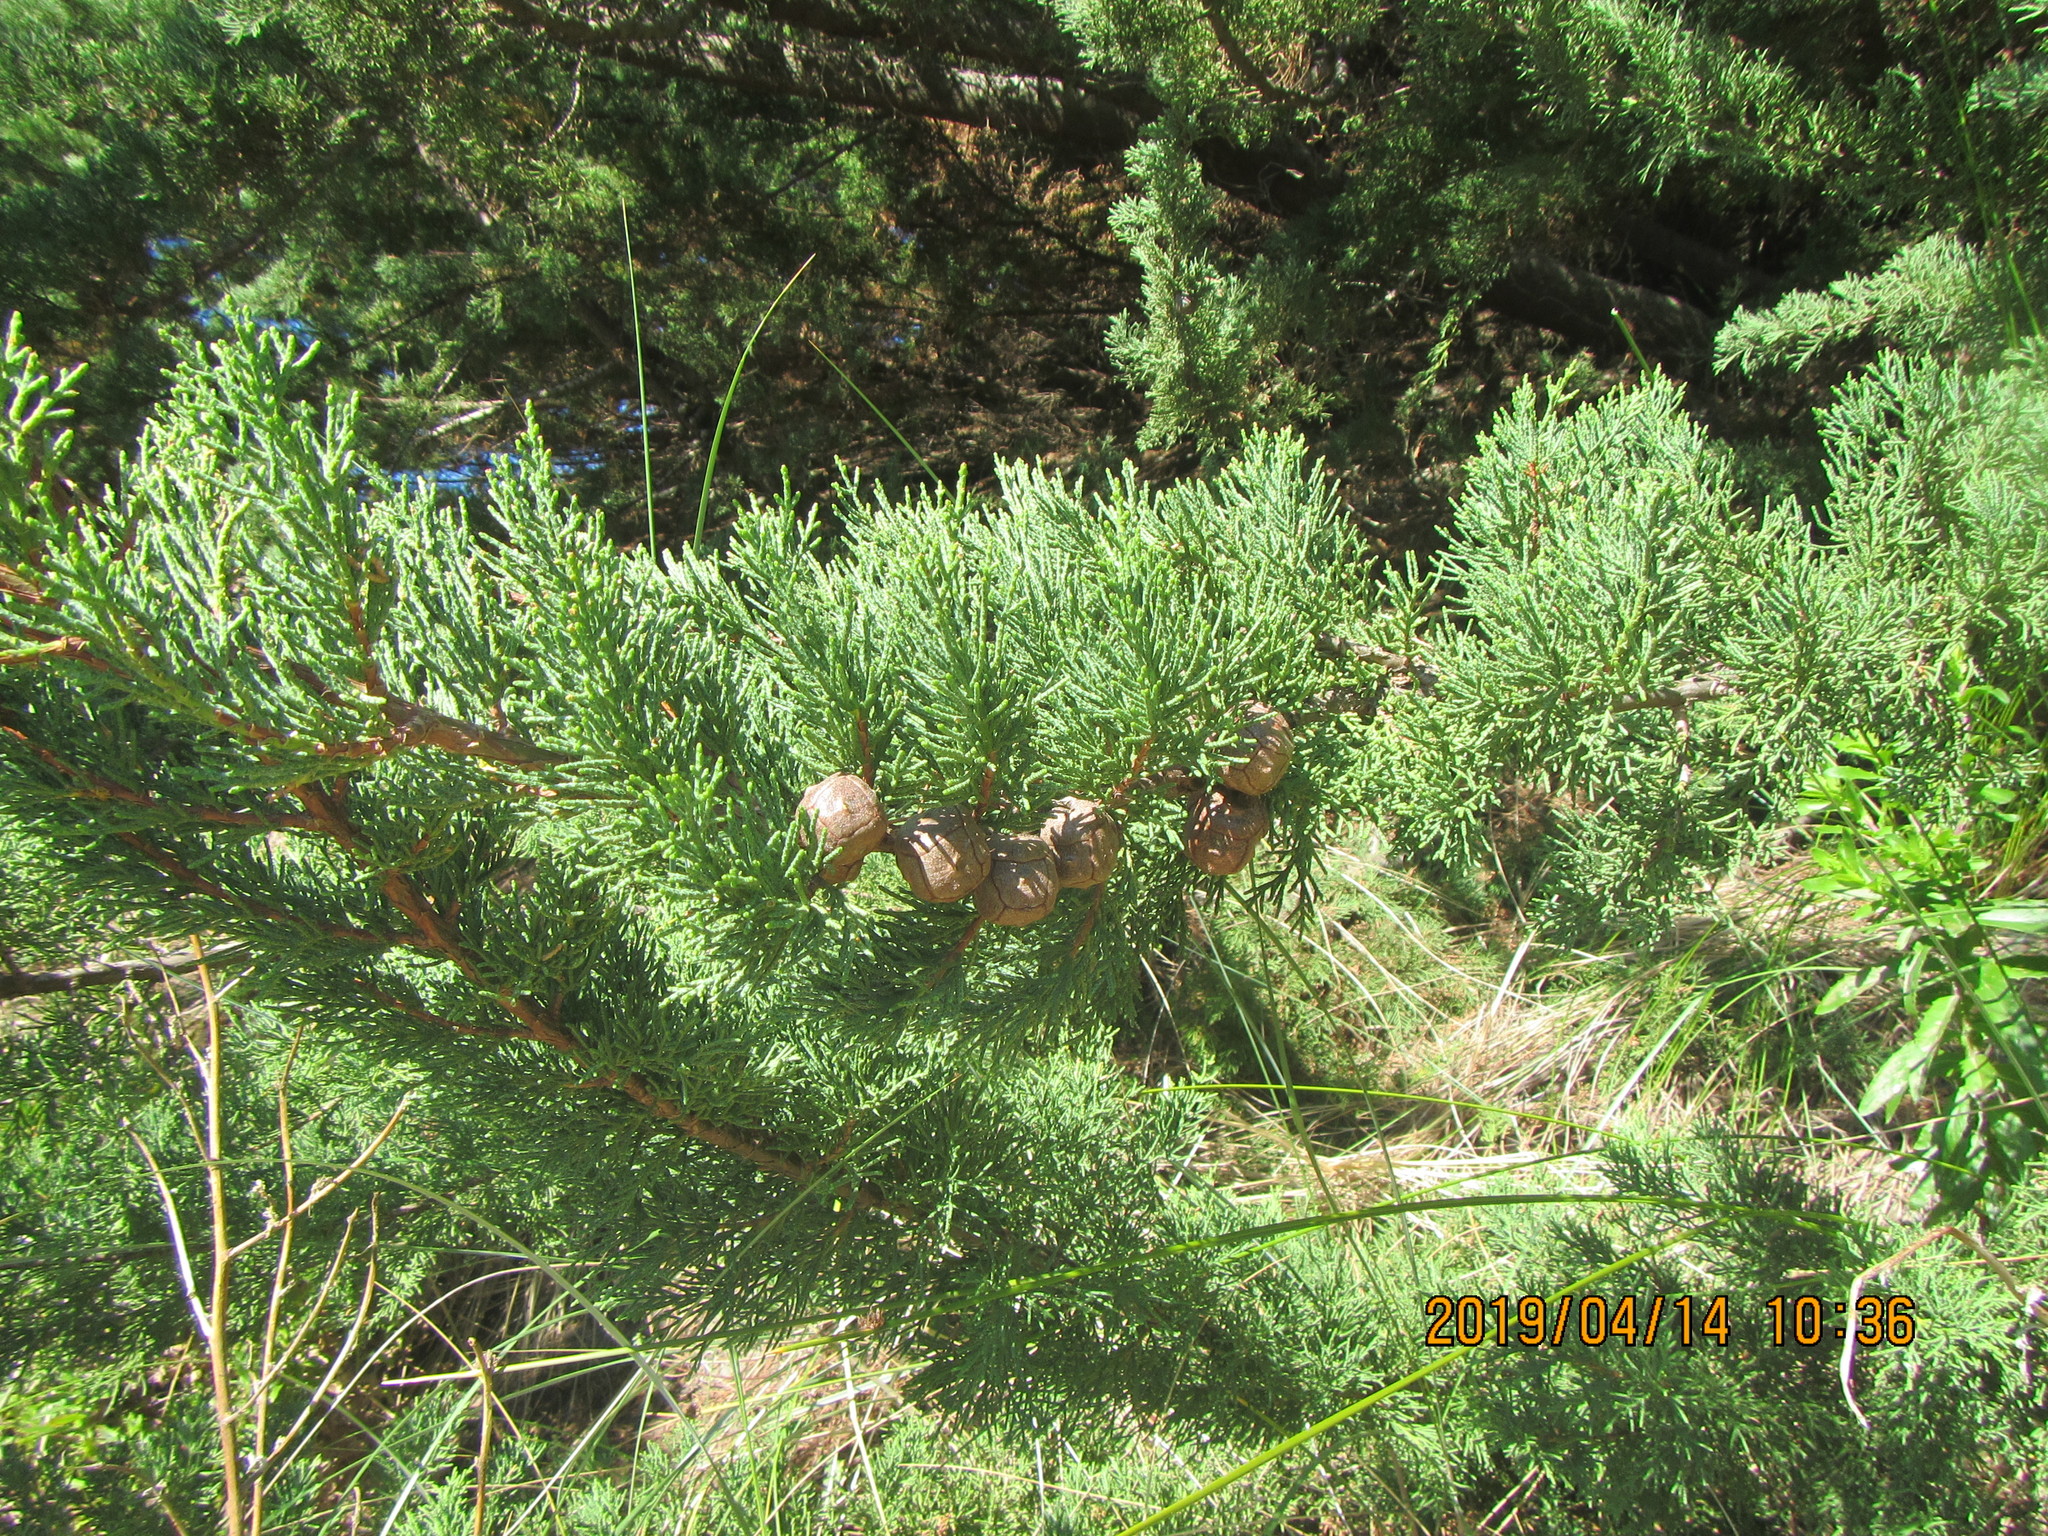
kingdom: Plantae
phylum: Tracheophyta
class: Pinopsida
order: Pinales
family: Cupressaceae
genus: Cupressus
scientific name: Cupressus macrocarpa
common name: Monterey cypress
